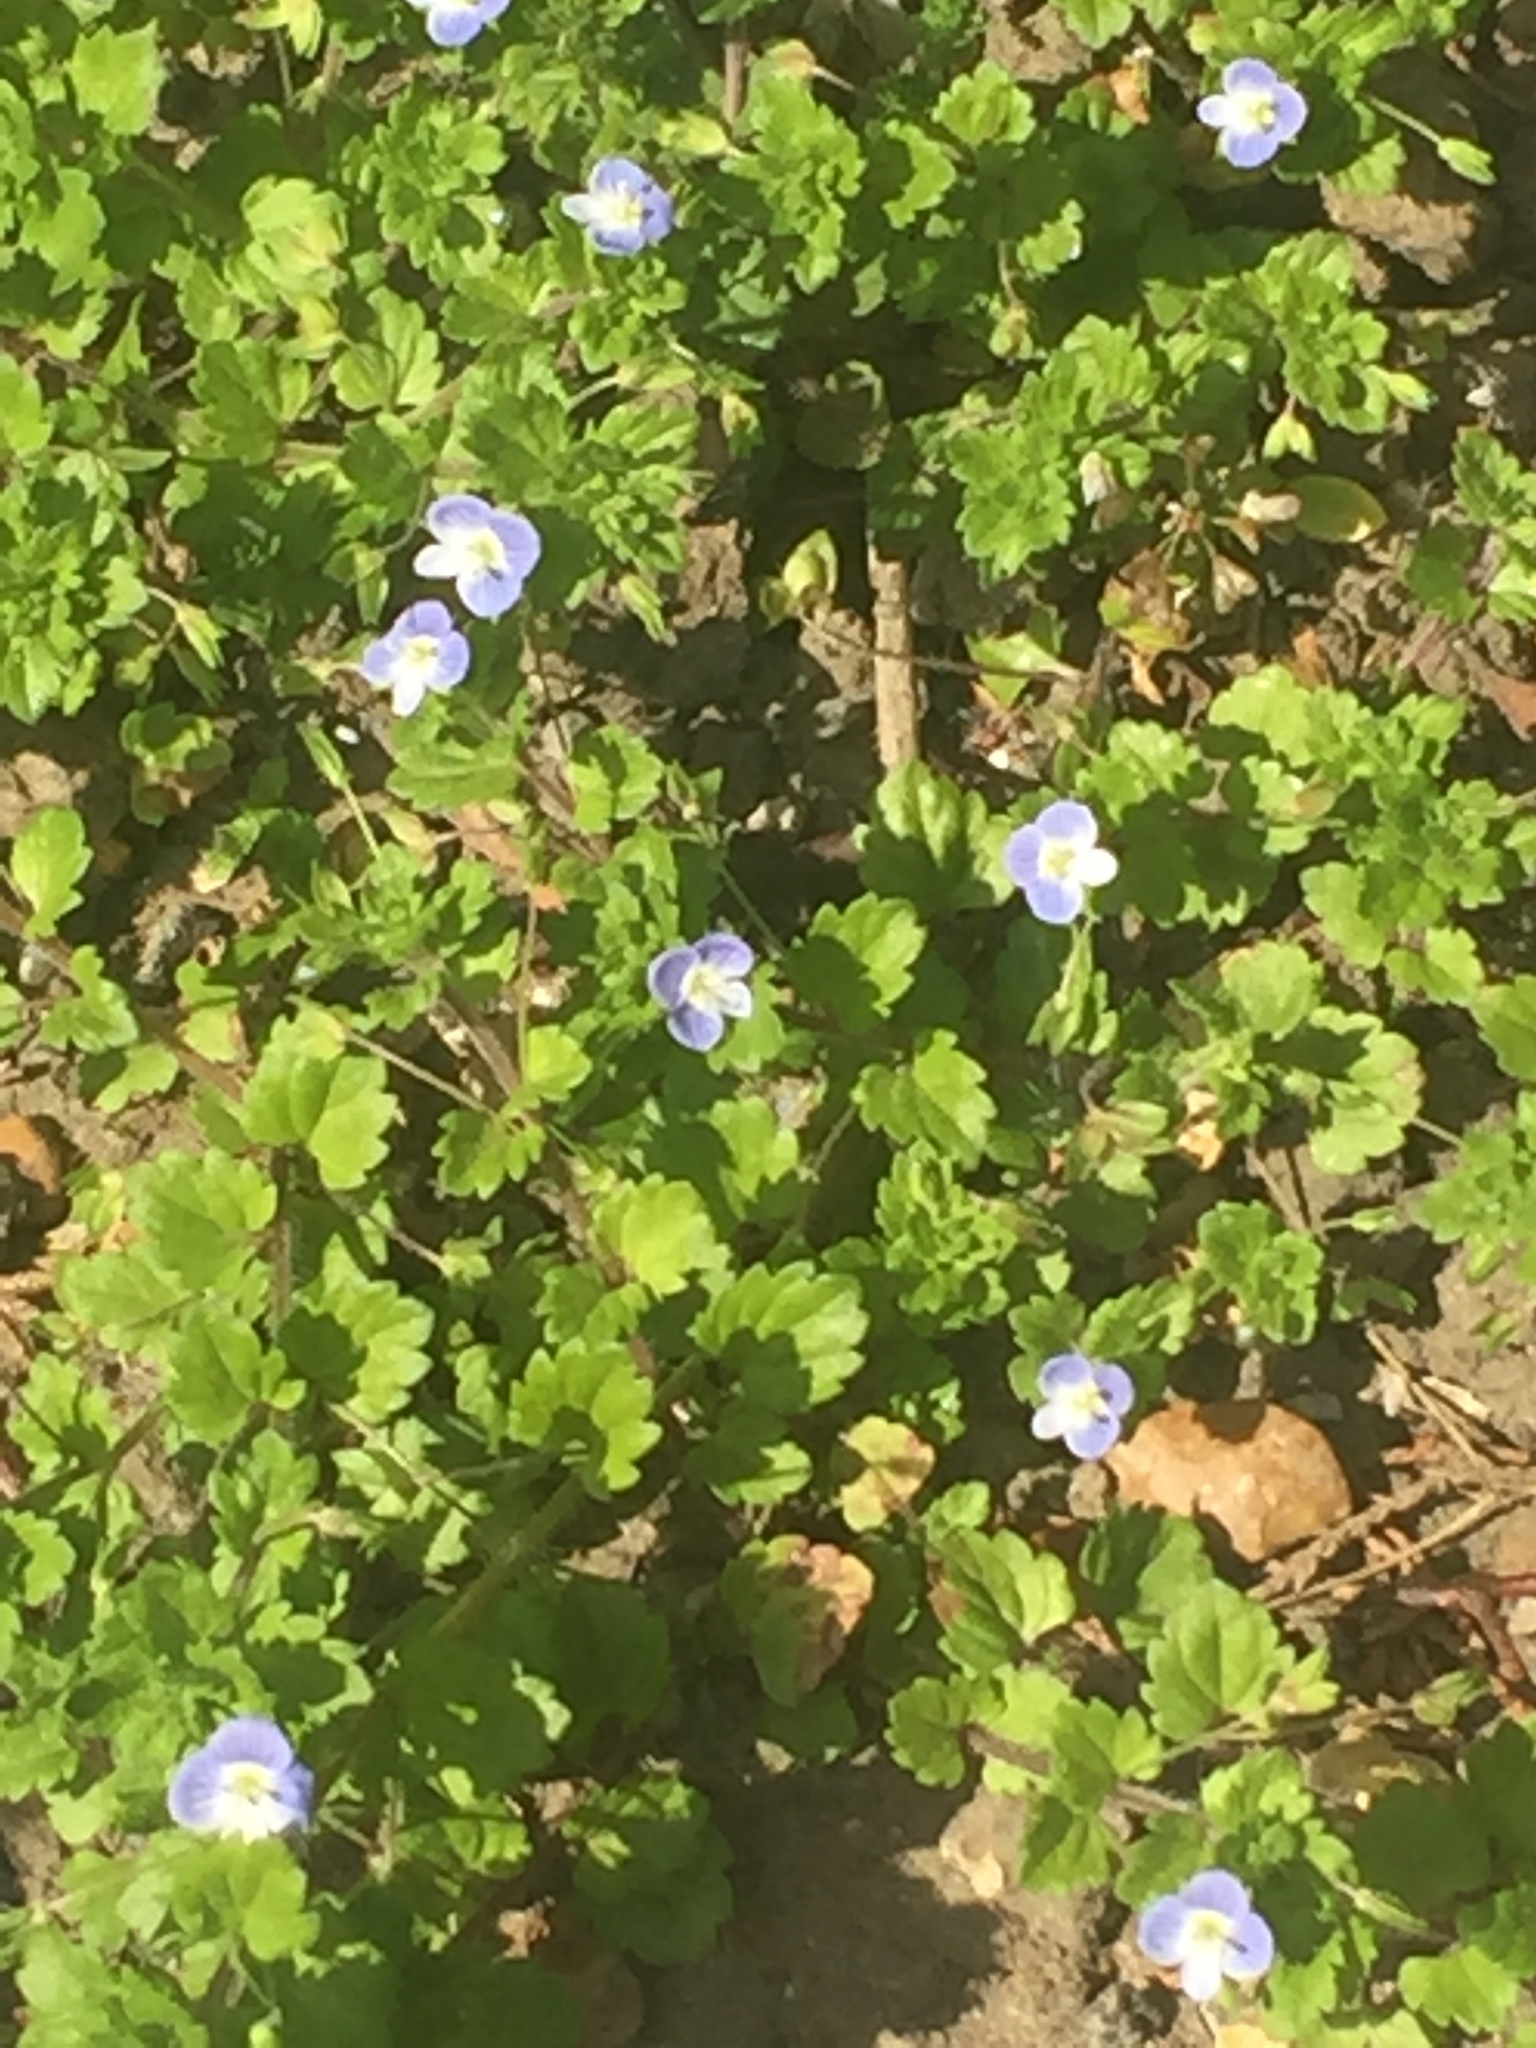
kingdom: Plantae
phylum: Tracheophyta
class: Magnoliopsida
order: Lamiales
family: Plantaginaceae
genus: Veronica
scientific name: Veronica persica
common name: Common field-speedwell
